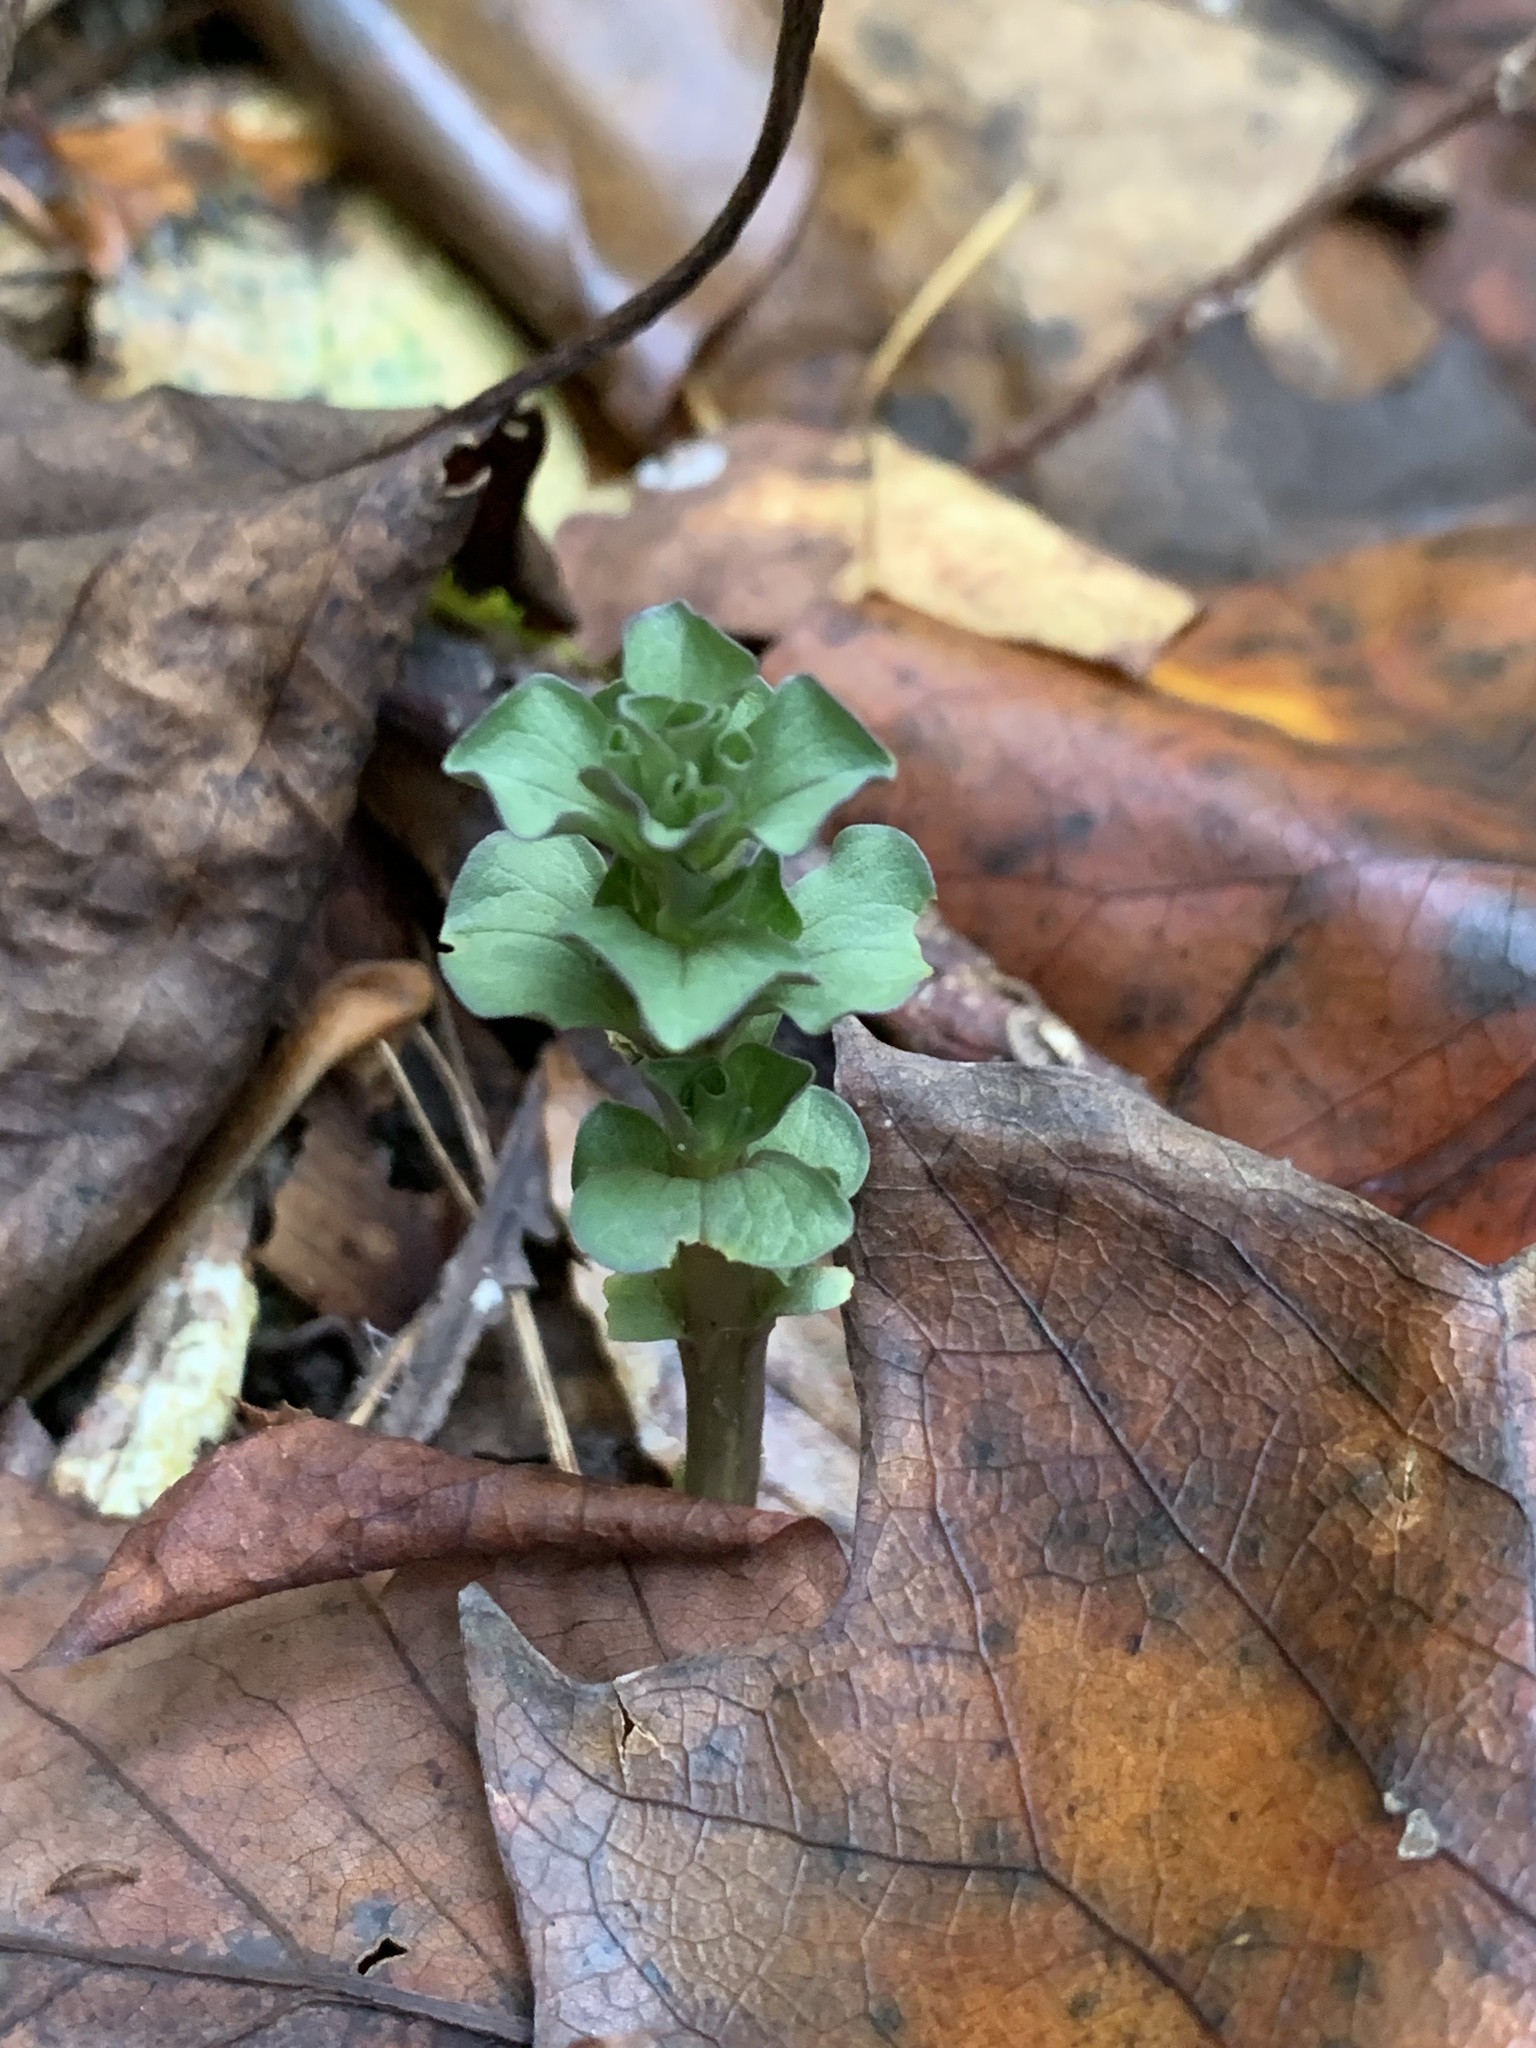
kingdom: Plantae
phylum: Tracheophyta
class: Magnoliopsida
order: Gentianales
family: Gentianaceae
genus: Obolaria
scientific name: Obolaria virginica
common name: Pennywort
